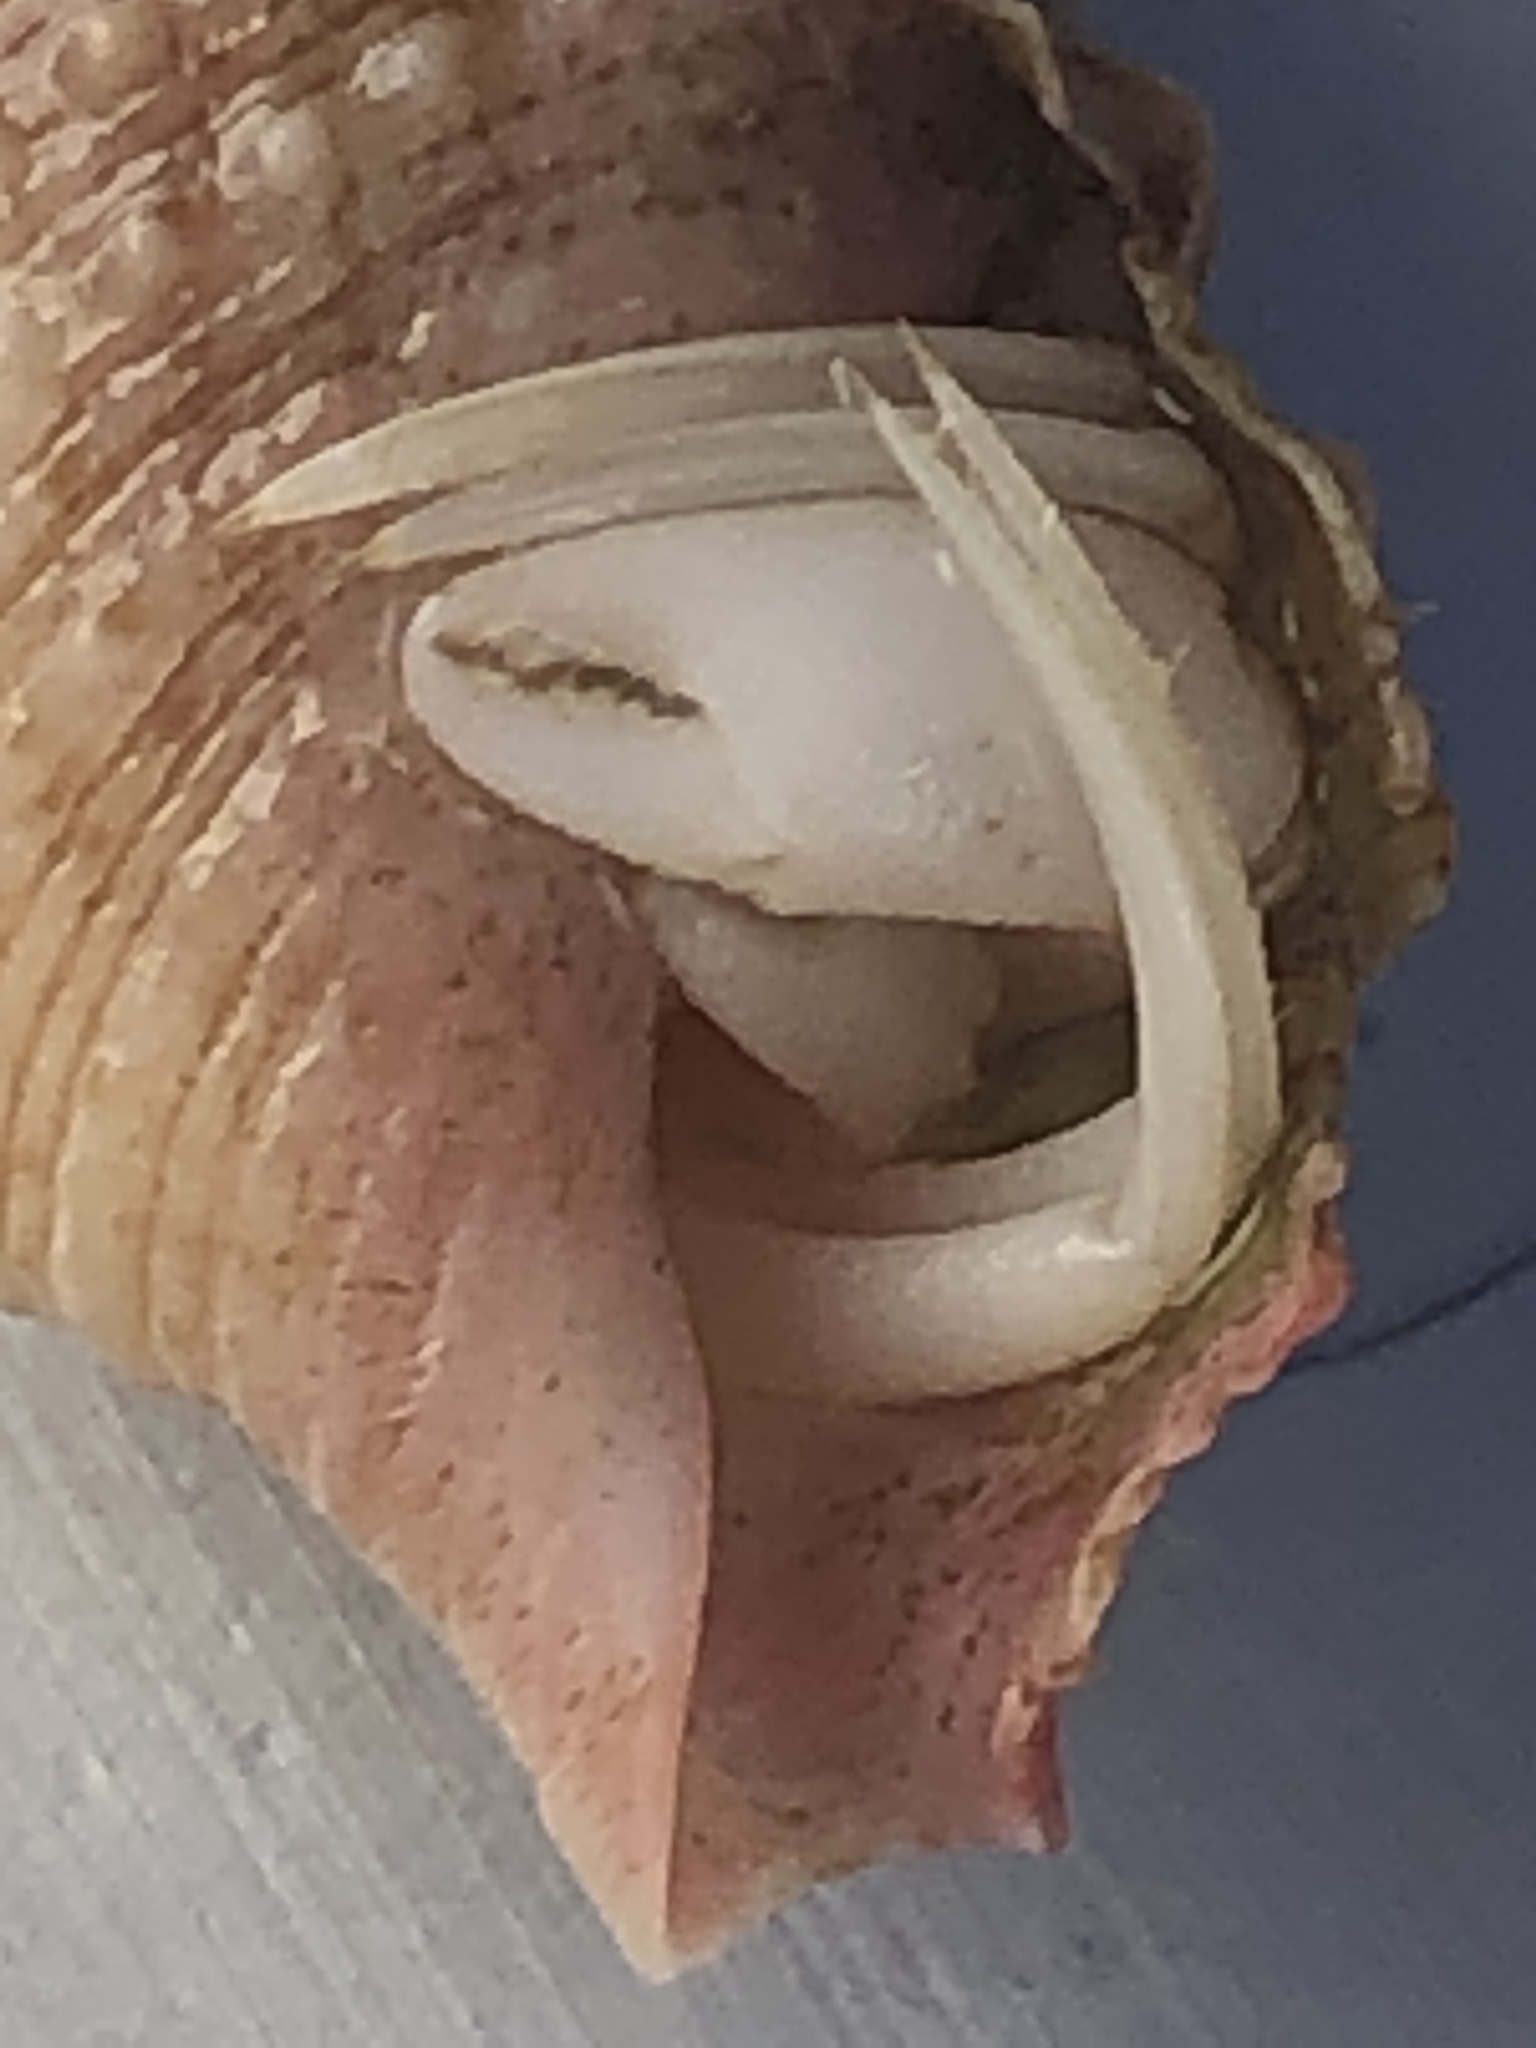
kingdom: Animalia
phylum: Arthropoda
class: Malacostraca
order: Decapoda
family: Paguridae
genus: Pagurus
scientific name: Pagurus longicarpus
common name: Long-armed hermit crab
